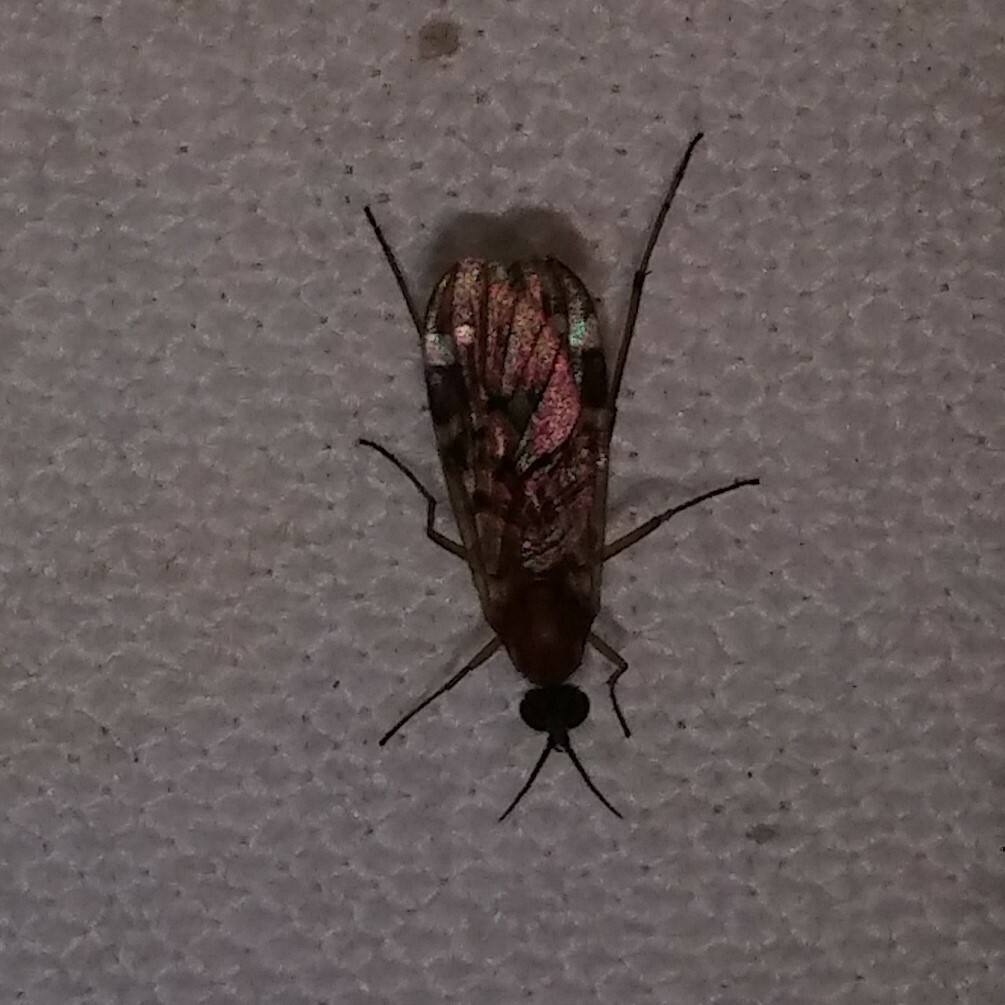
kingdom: Animalia
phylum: Arthropoda
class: Insecta
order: Diptera
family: Anisopodidae
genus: Sylvicola
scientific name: Sylvicola alternata
